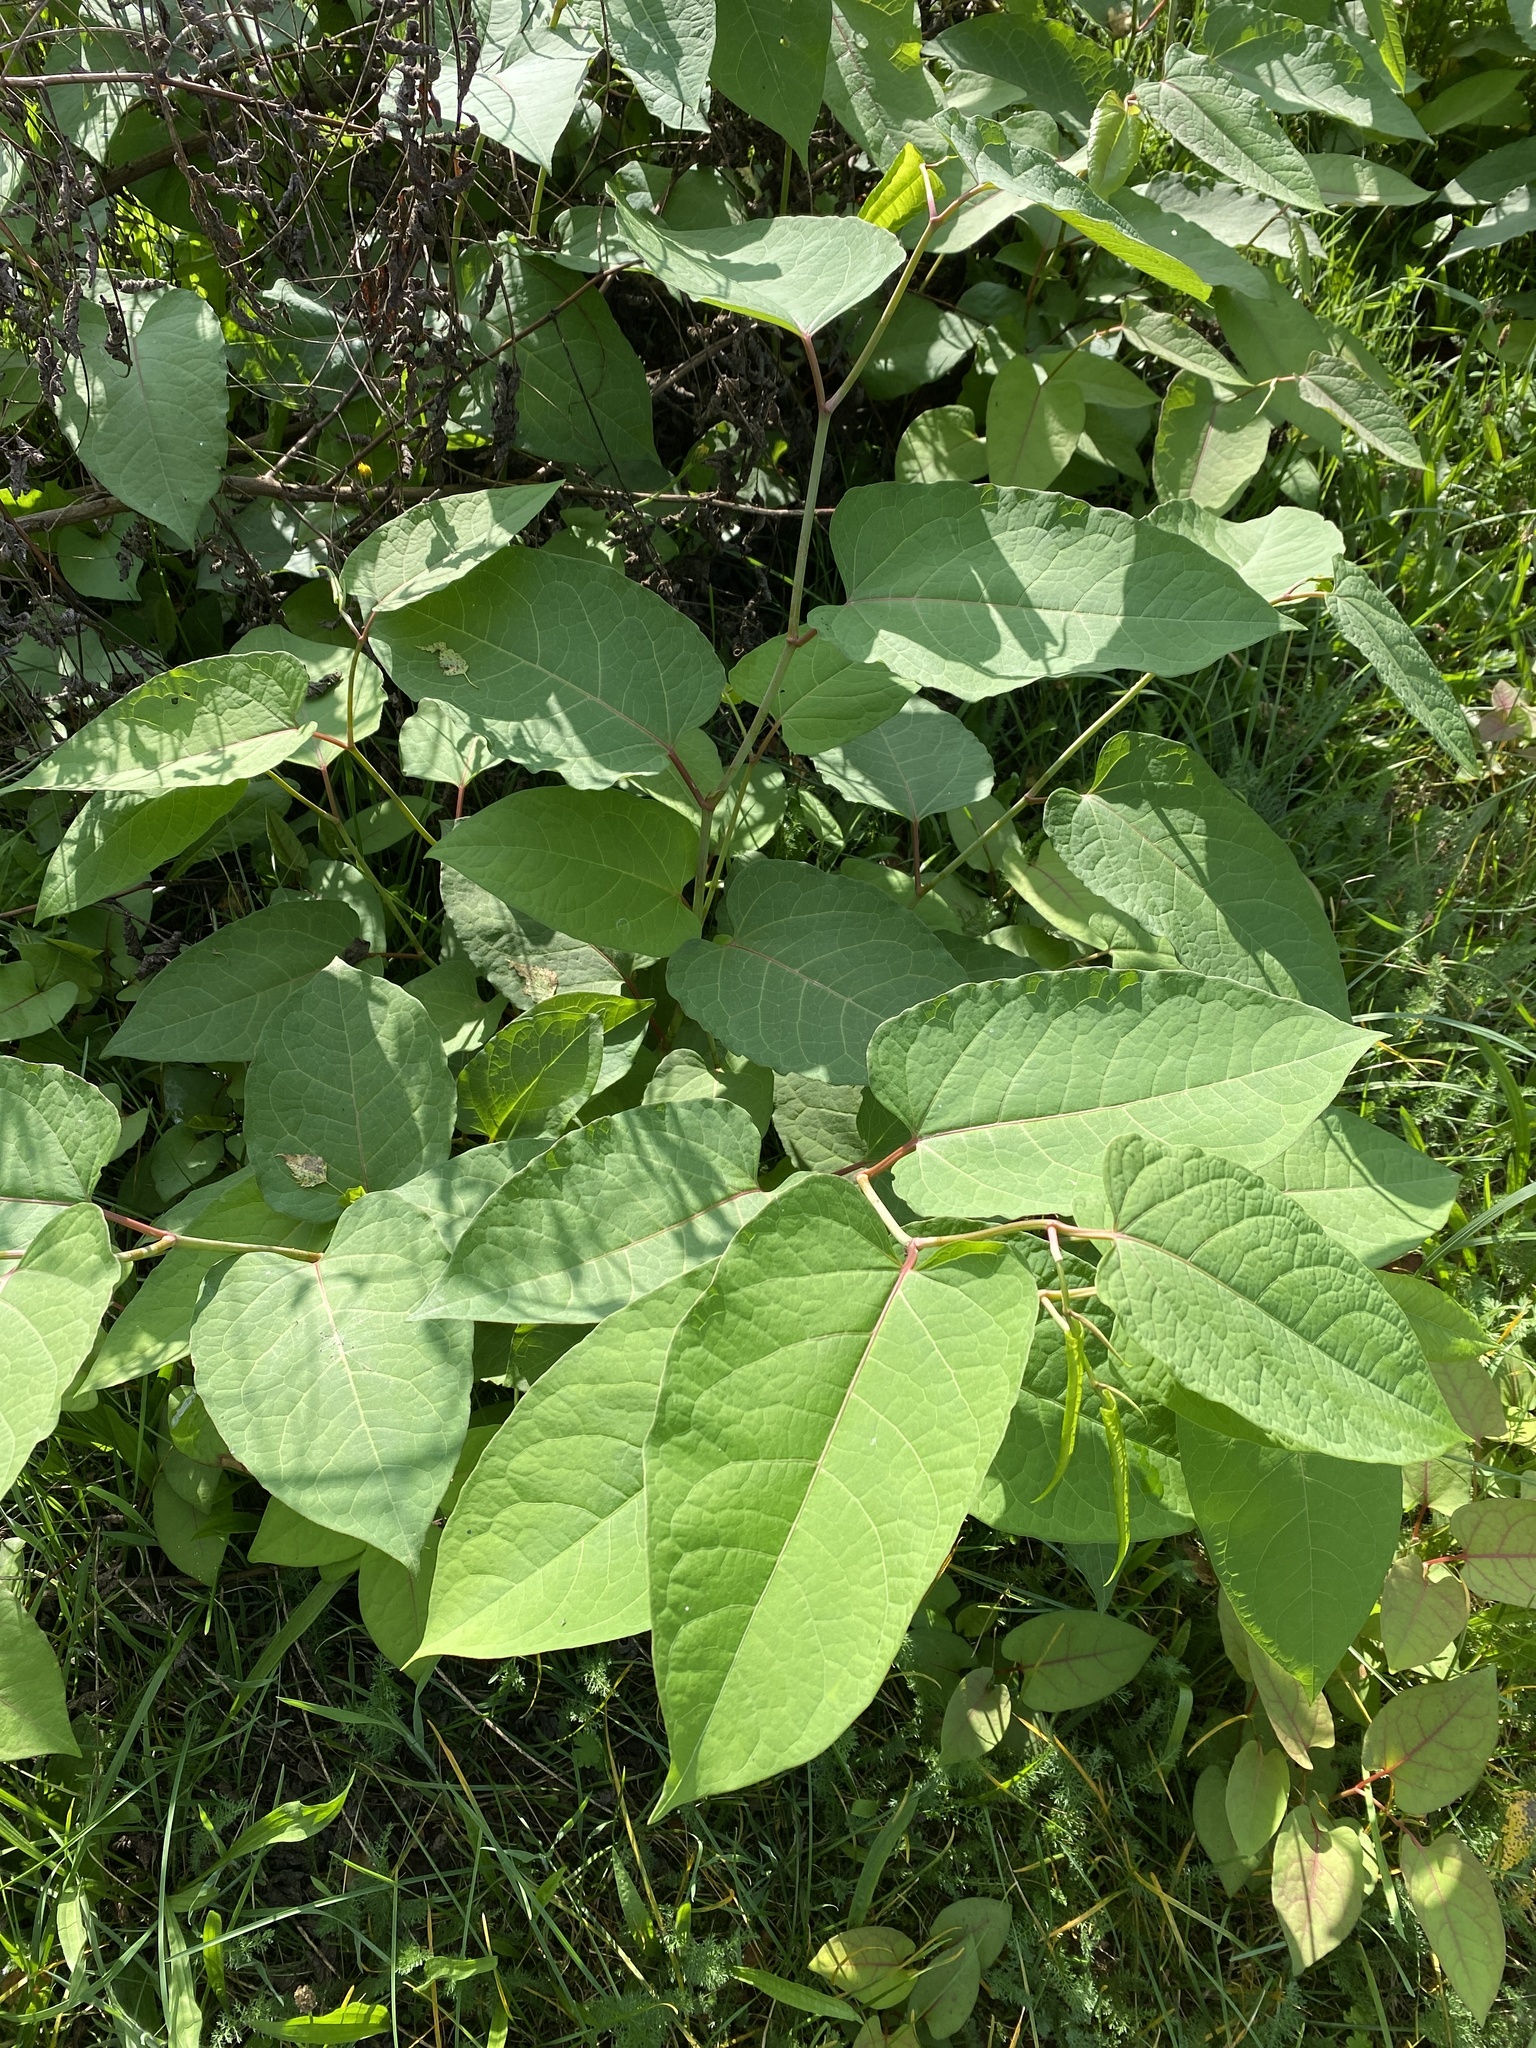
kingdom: Plantae
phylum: Tracheophyta
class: Magnoliopsida
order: Caryophyllales
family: Polygonaceae
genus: Reynoutria
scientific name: Reynoutria bohemica
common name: Bohemian knotweed
